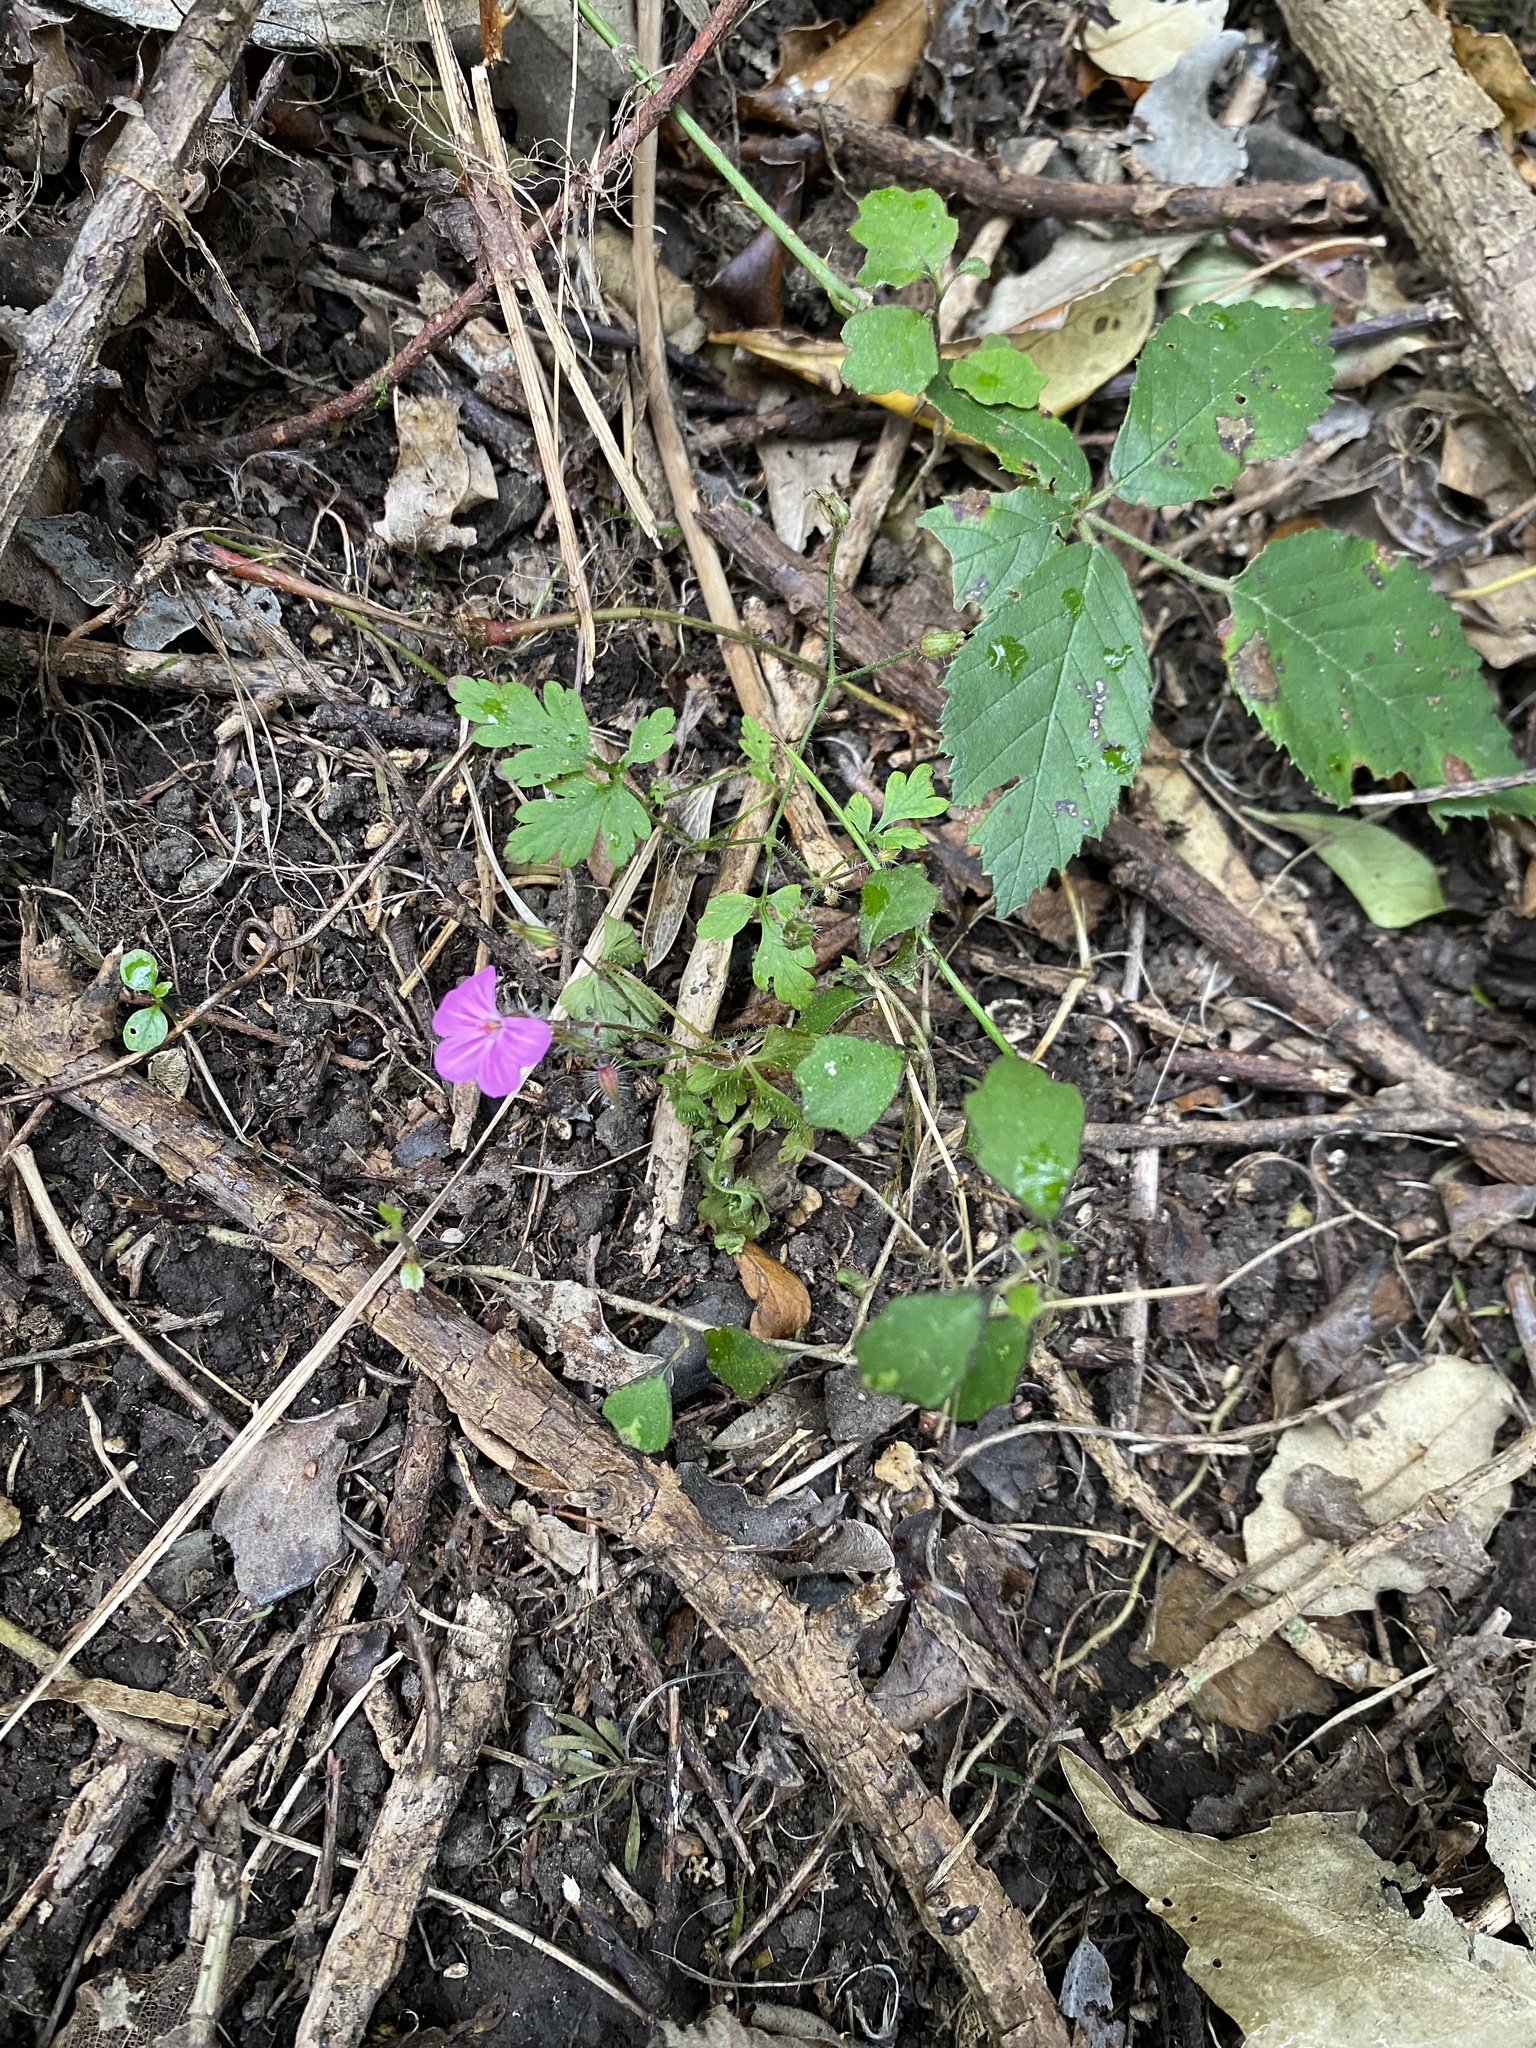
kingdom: Plantae
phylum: Tracheophyta
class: Magnoliopsida
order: Geraniales
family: Geraniaceae
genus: Geranium
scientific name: Geranium robertianum
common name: Herb-robert
